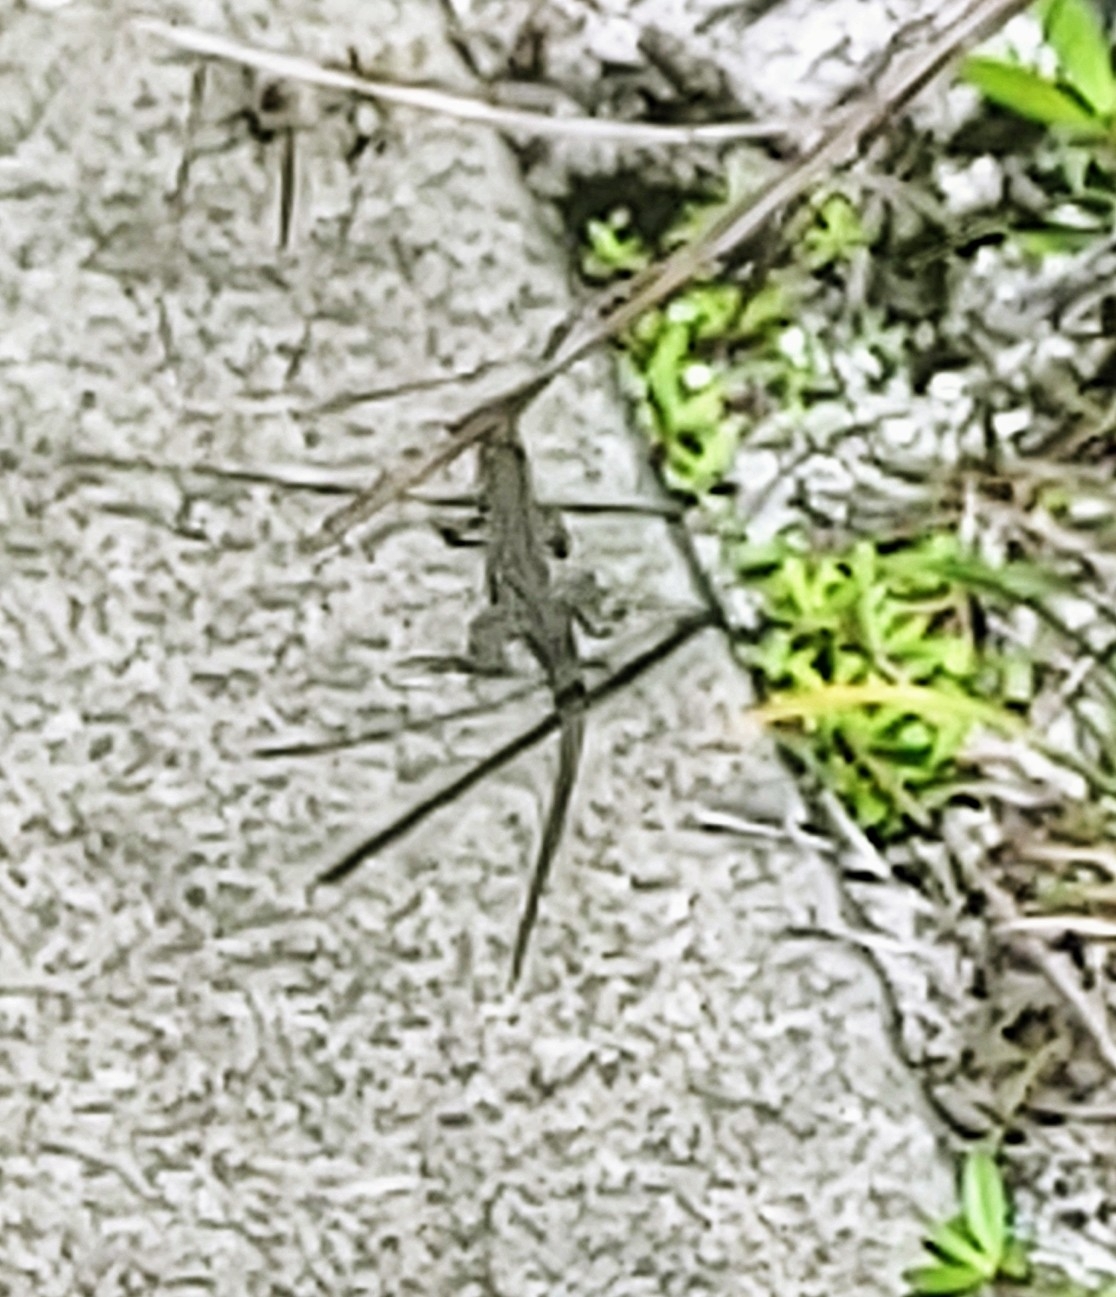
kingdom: Animalia
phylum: Chordata
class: Squamata
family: Teiidae
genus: Aspidoscelis
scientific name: Aspidoscelis sexlineatus
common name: Six-lined racerunner
